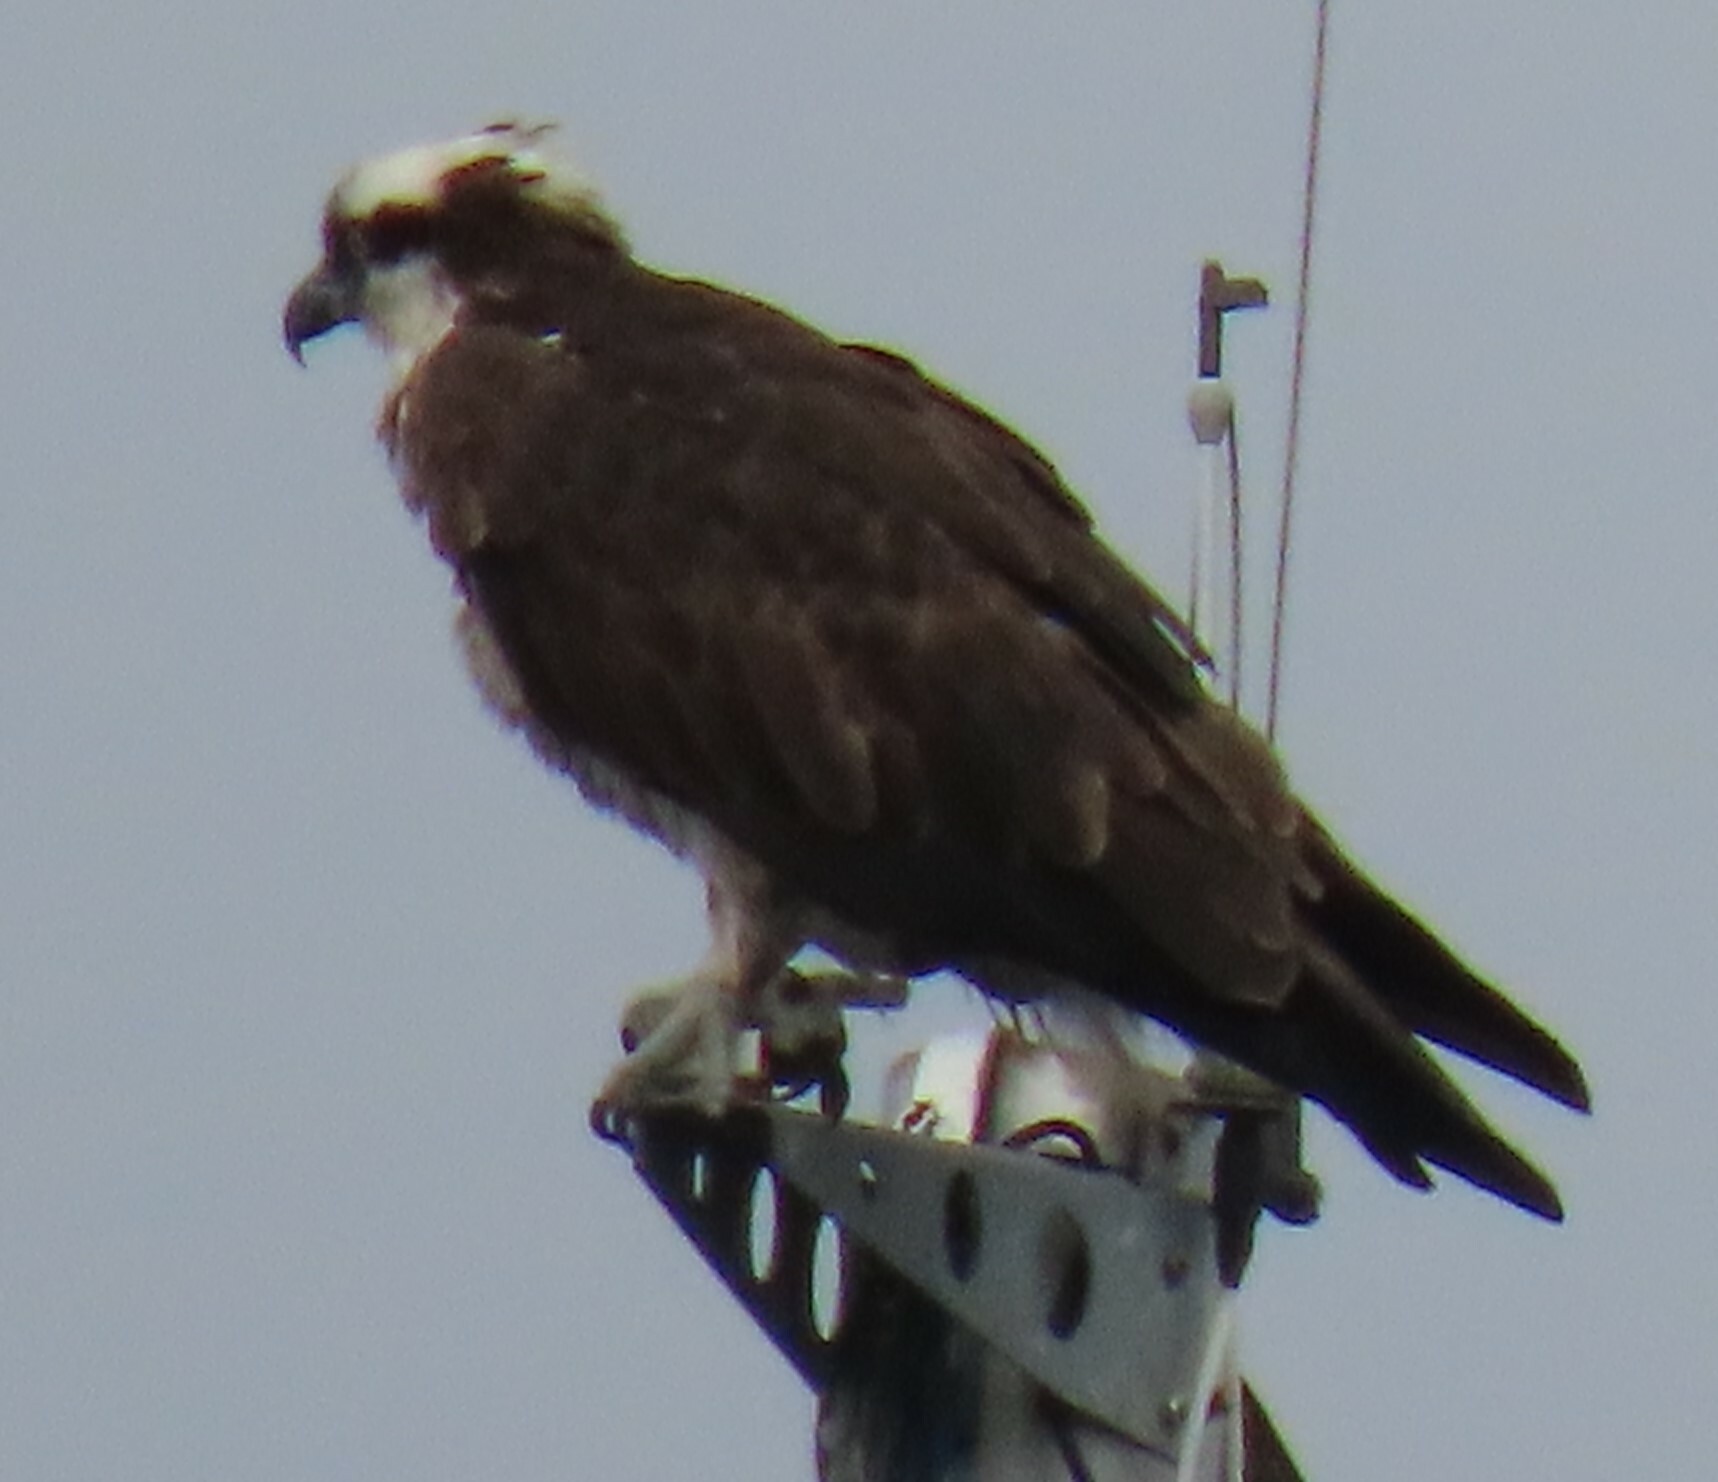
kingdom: Animalia
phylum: Chordata
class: Aves
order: Accipitriformes
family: Pandionidae
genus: Pandion
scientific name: Pandion haliaetus
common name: Osprey
